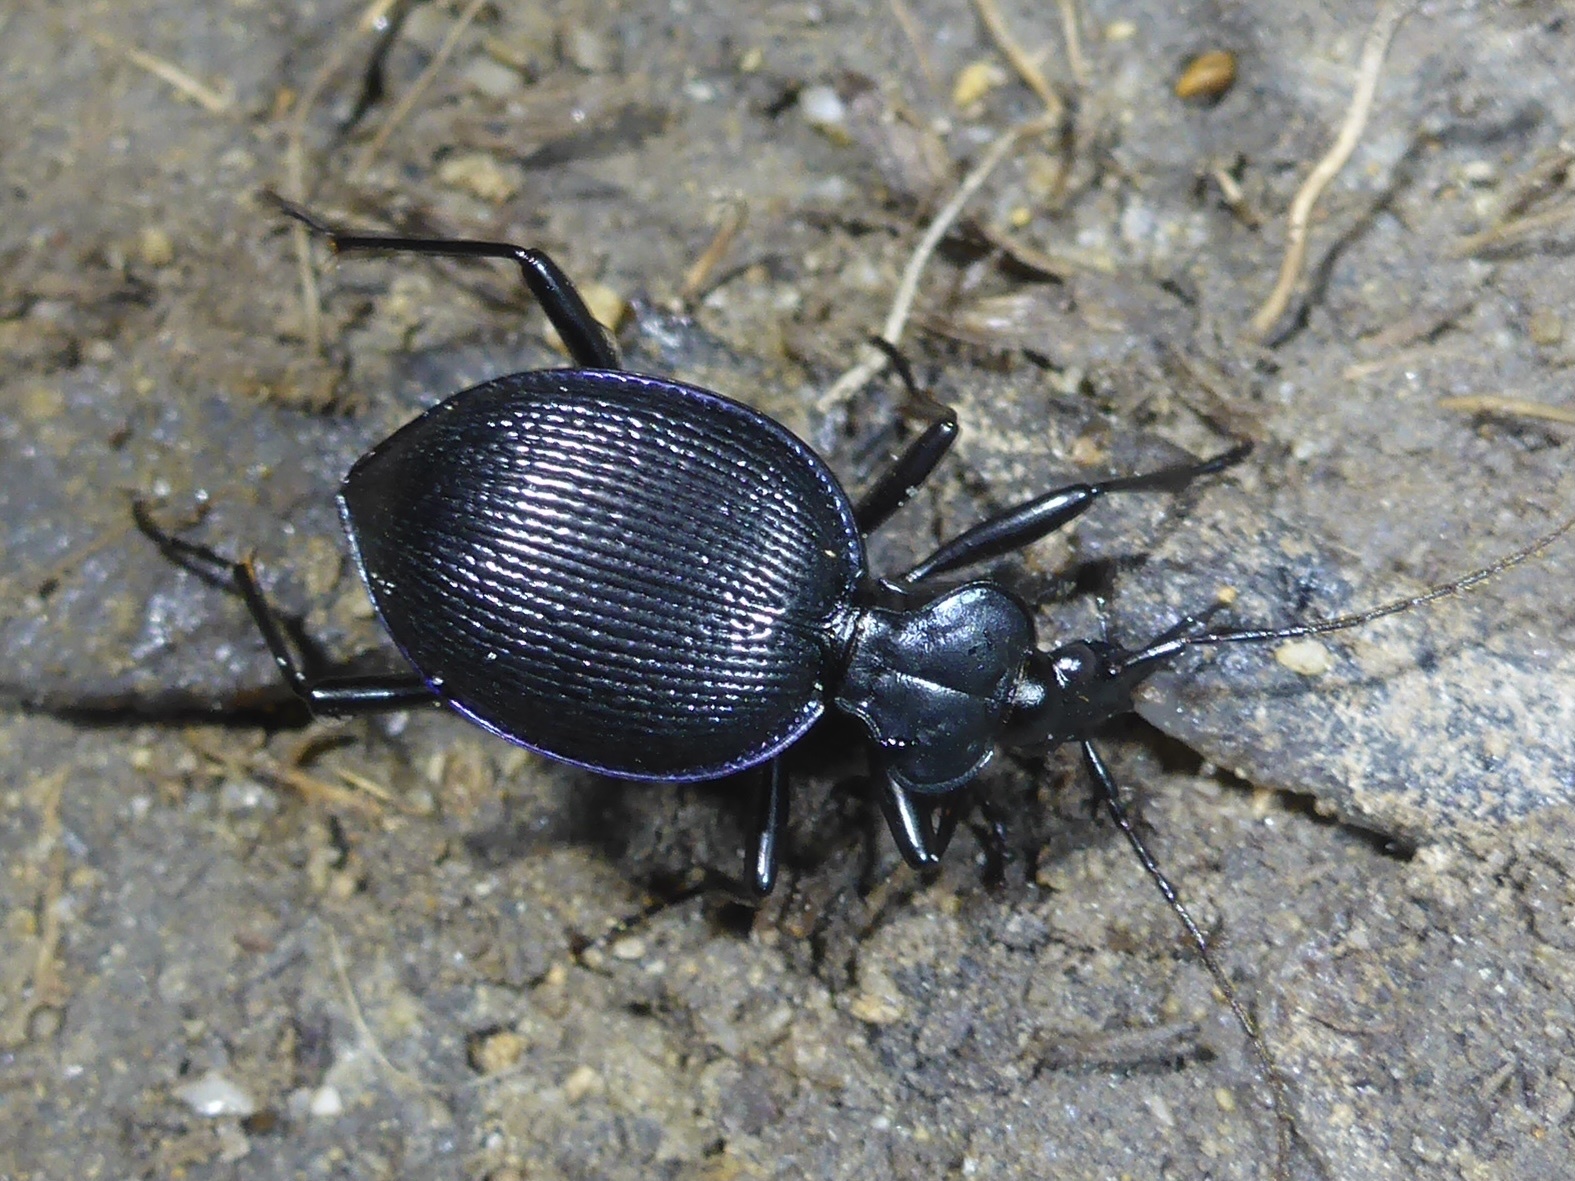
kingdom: Animalia
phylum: Arthropoda
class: Insecta
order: Coleoptera
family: Carabidae
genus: Scaphinotus
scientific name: Scaphinotus interruptus
